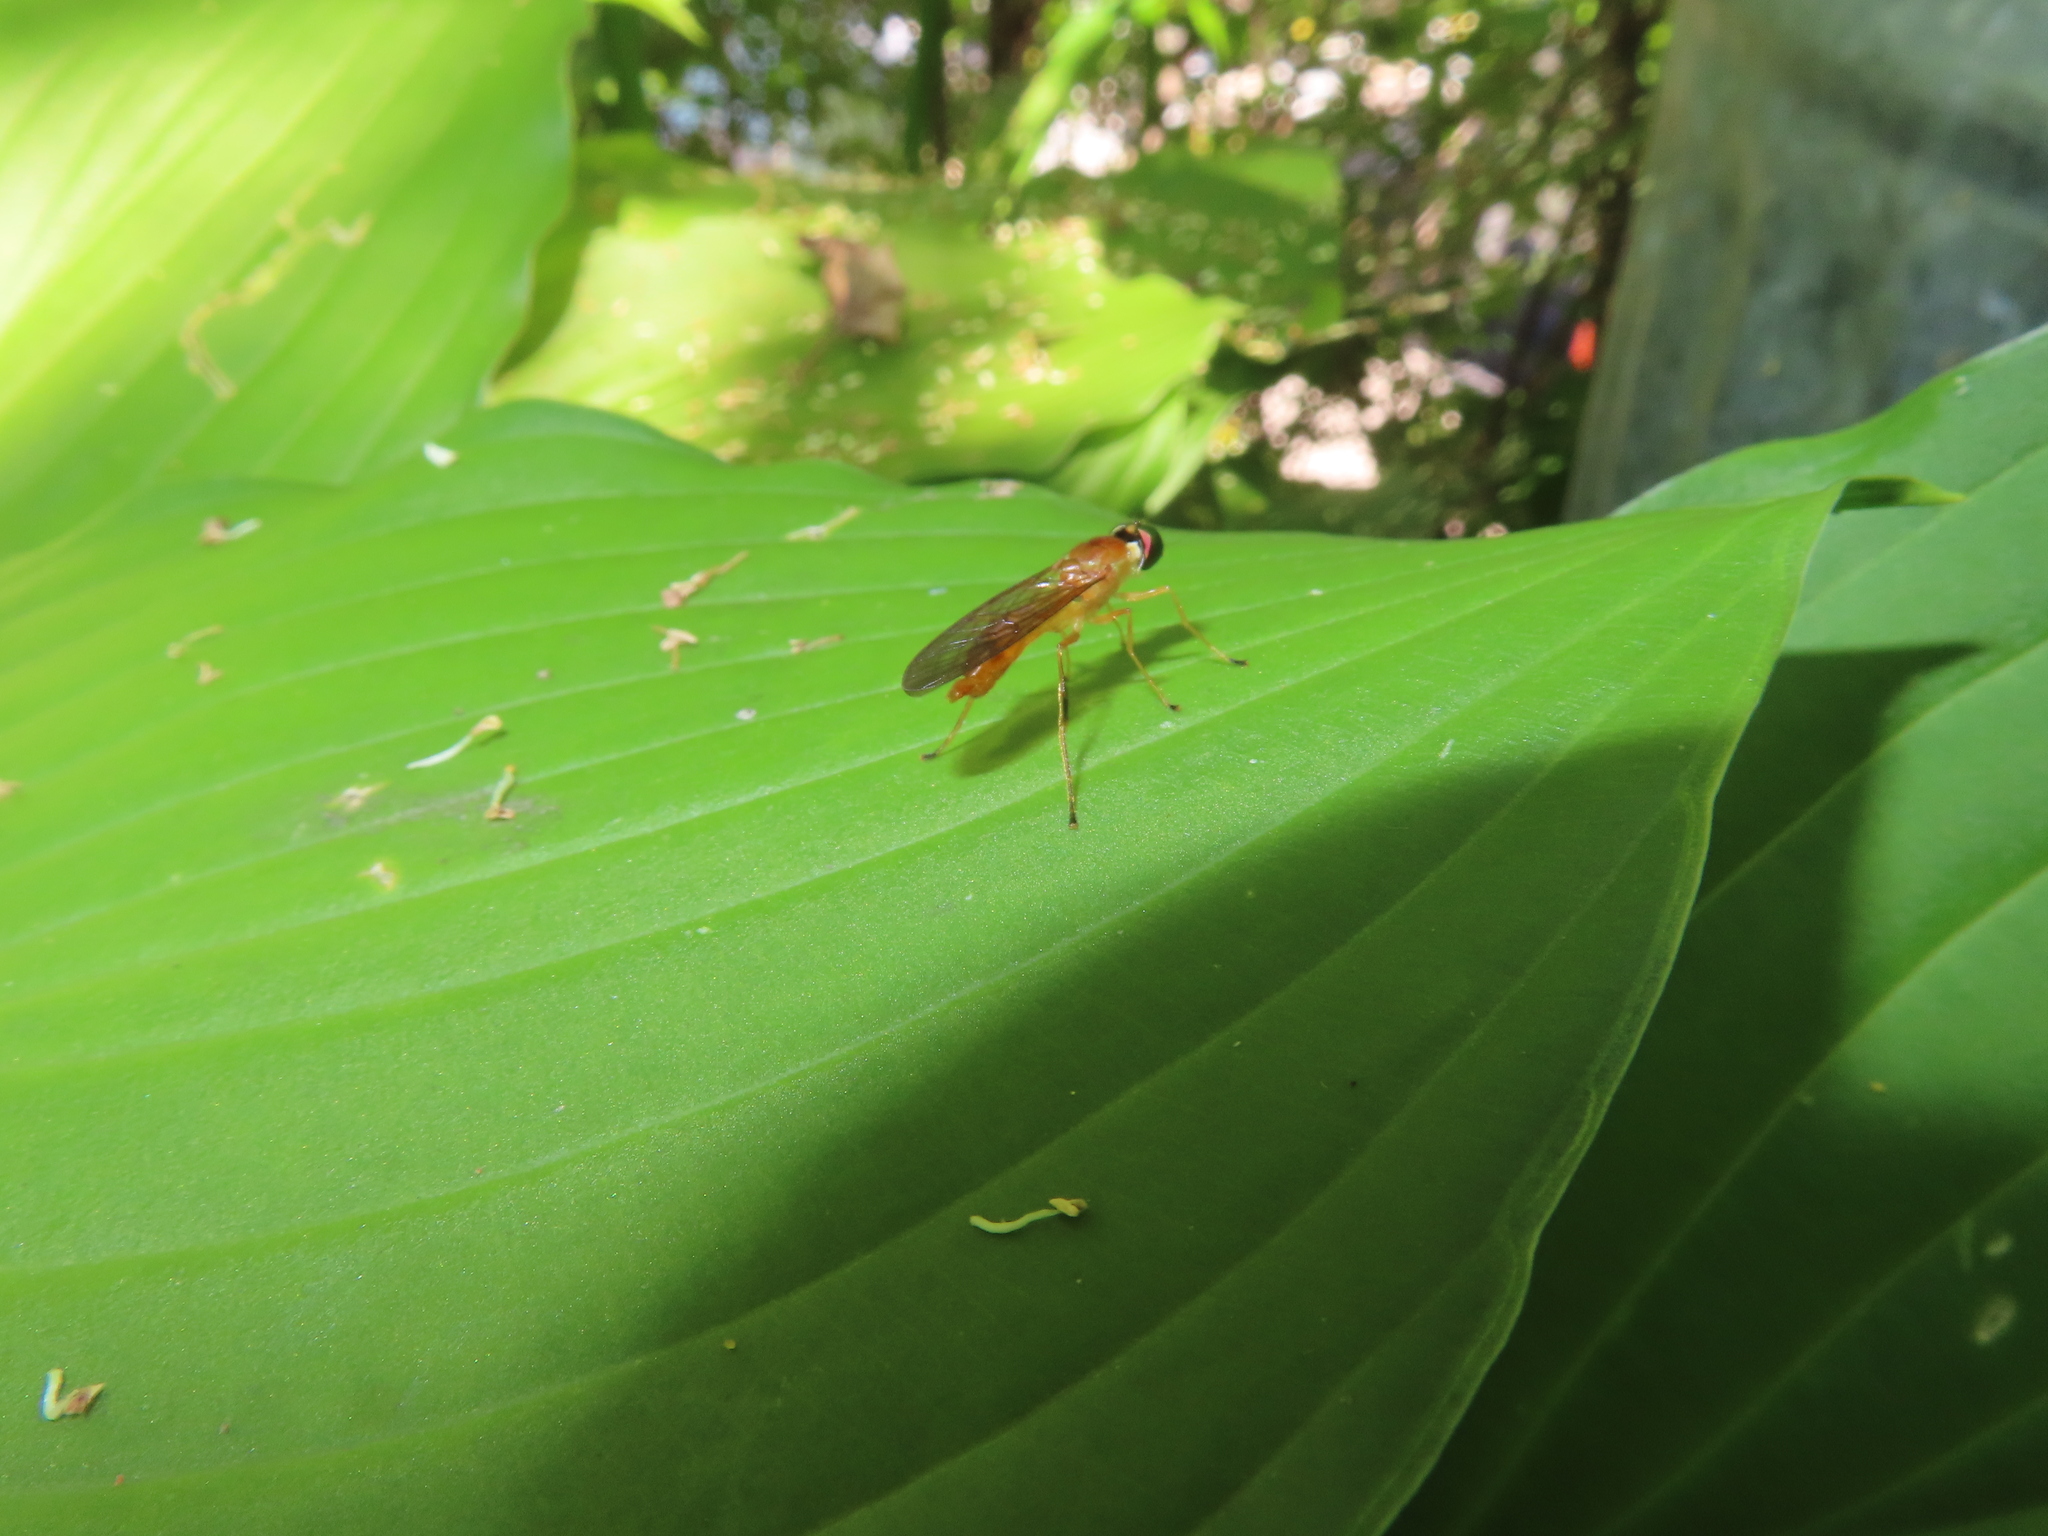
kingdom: Animalia
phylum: Arthropoda
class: Insecta
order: Diptera
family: Stratiomyidae
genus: Ptecticus
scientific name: Ptecticus trivittatus
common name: Compost fly
